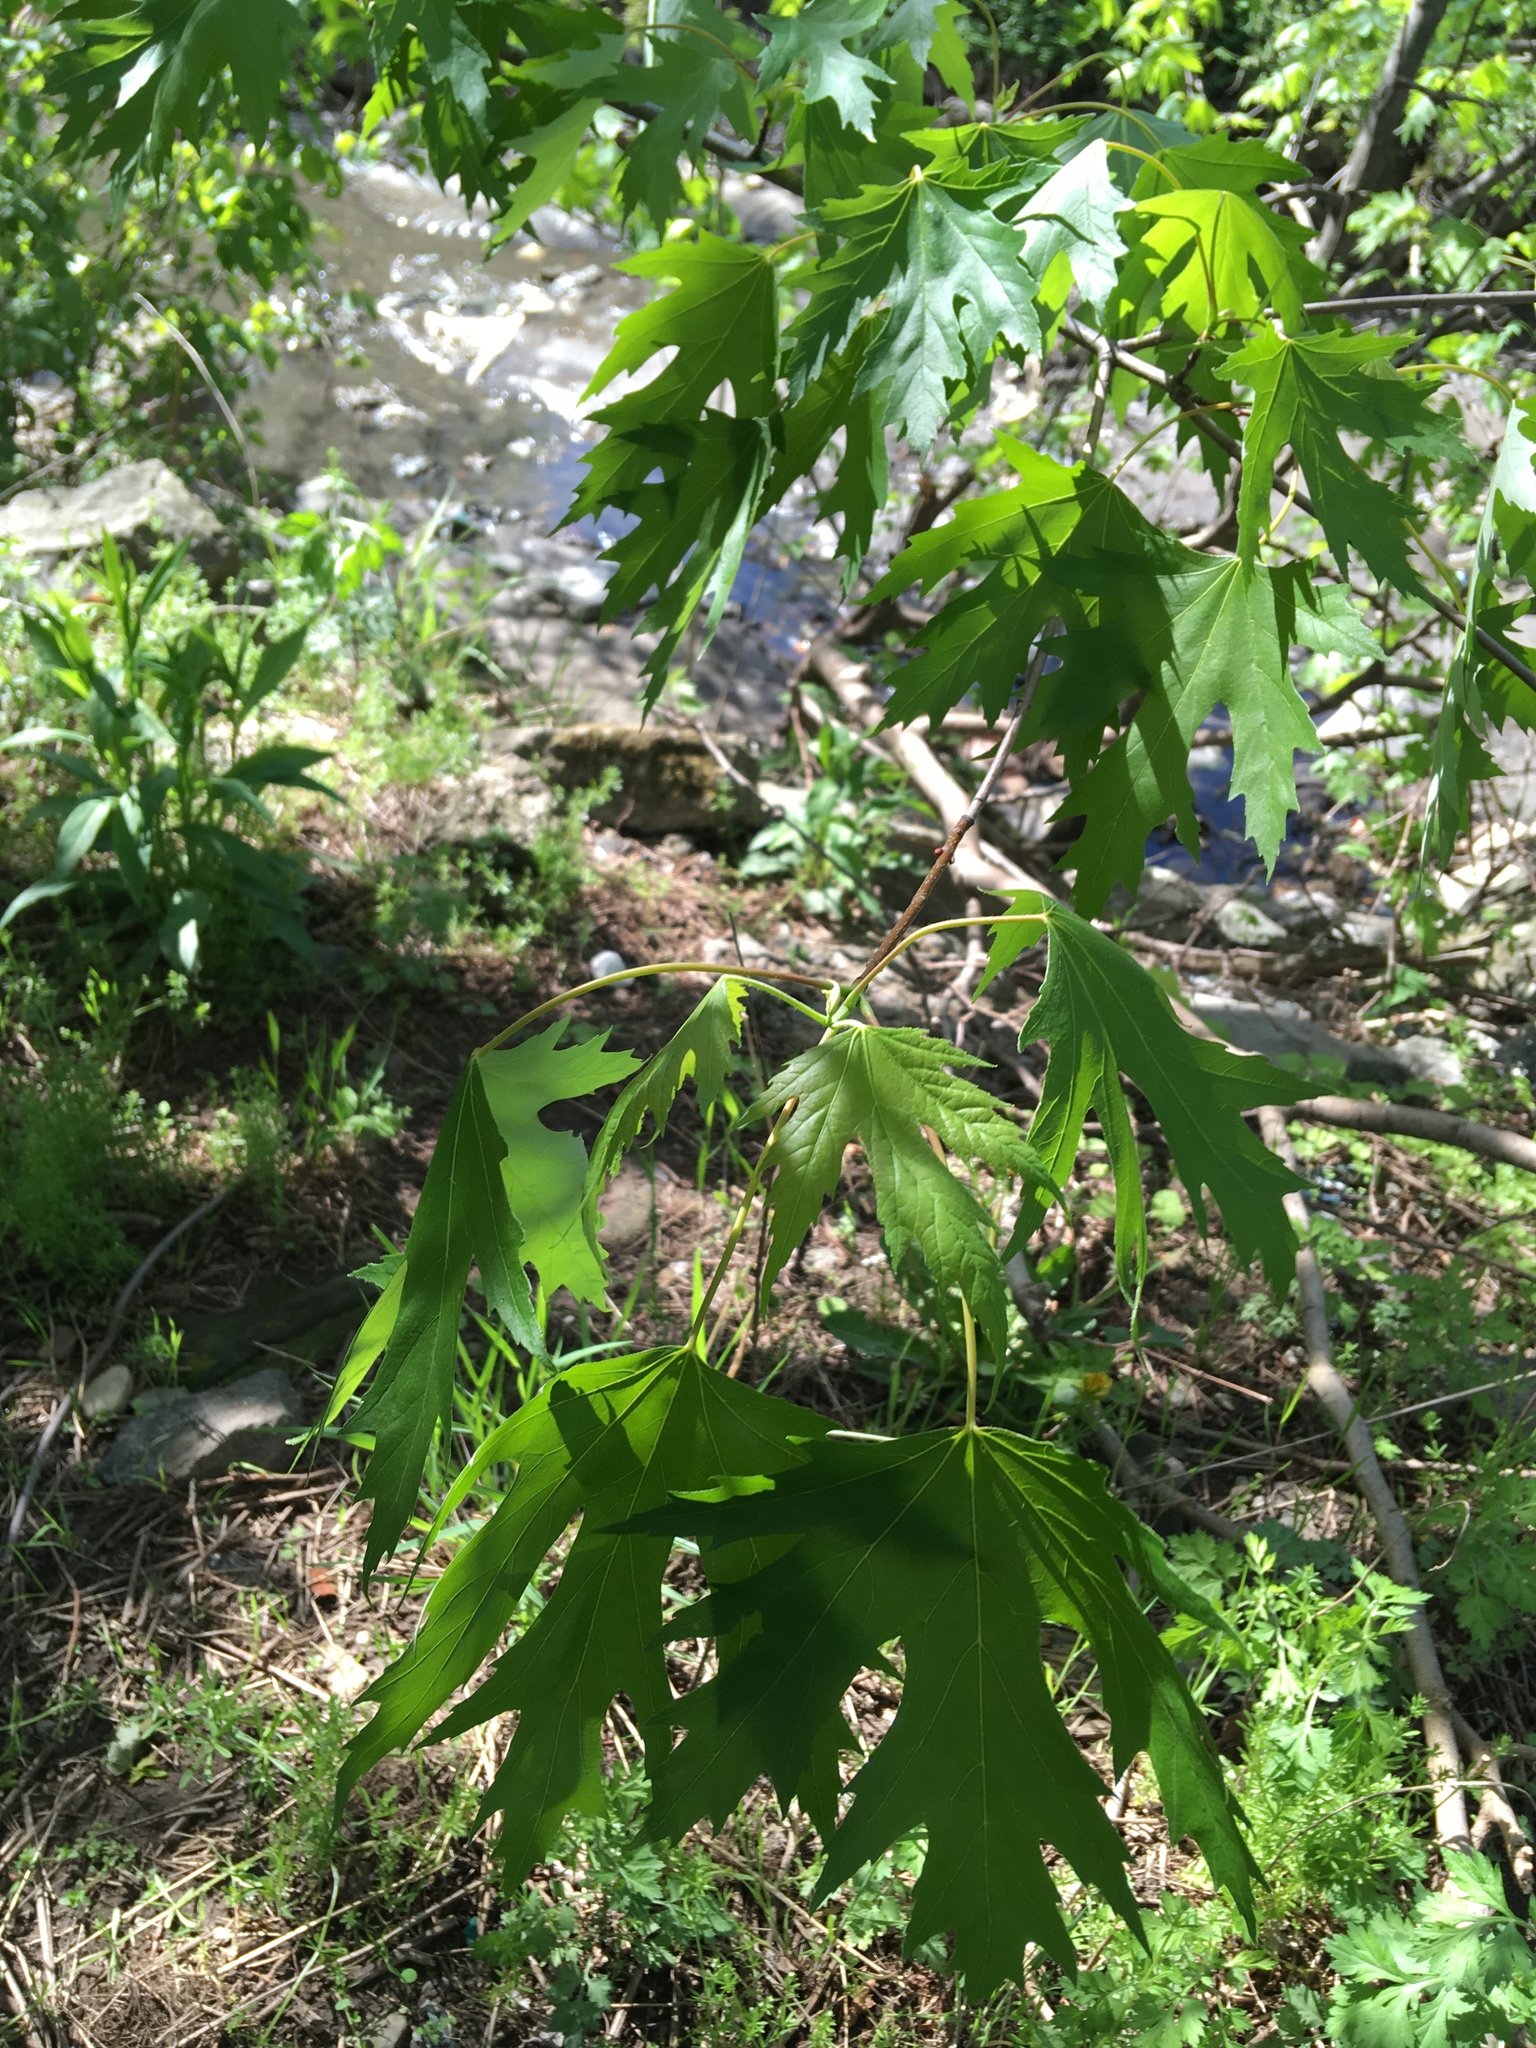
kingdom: Plantae
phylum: Tracheophyta
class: Magnoliopsida
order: Sapindales
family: Sapindaceae
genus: Acer
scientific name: Acer saccharinum
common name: Silver maple
